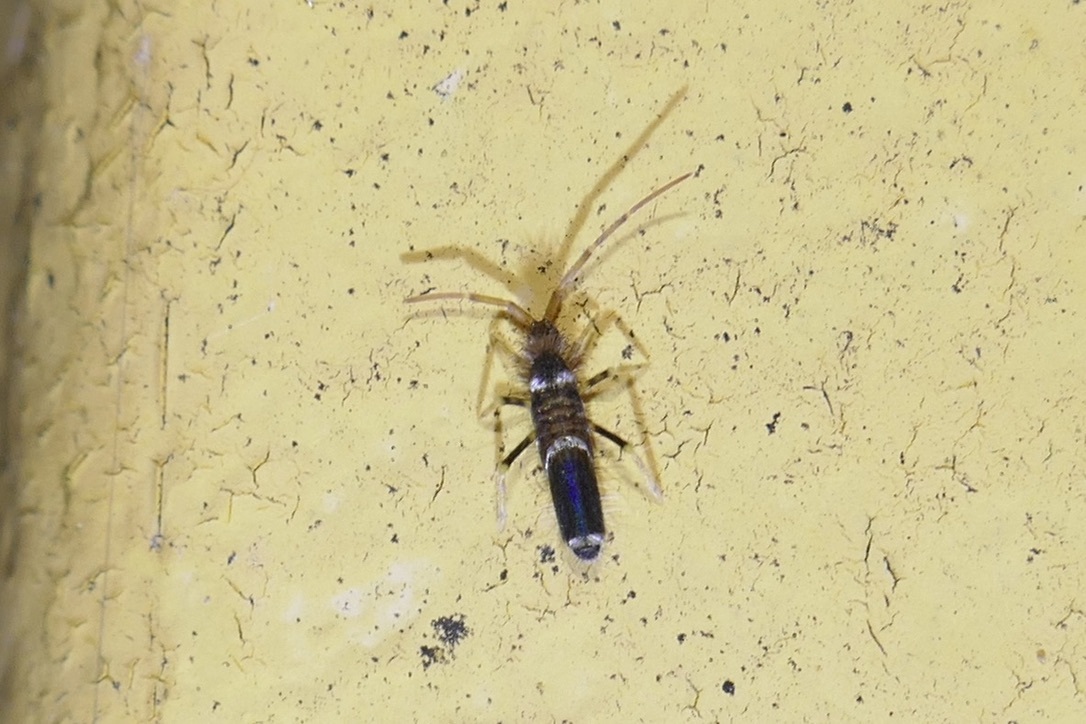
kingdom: Animalia
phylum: Arthropoda
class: Collembola
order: Entomobryomorpha
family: Entomobryidae
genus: Entomobrya
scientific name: Entomobrya dorsalis
